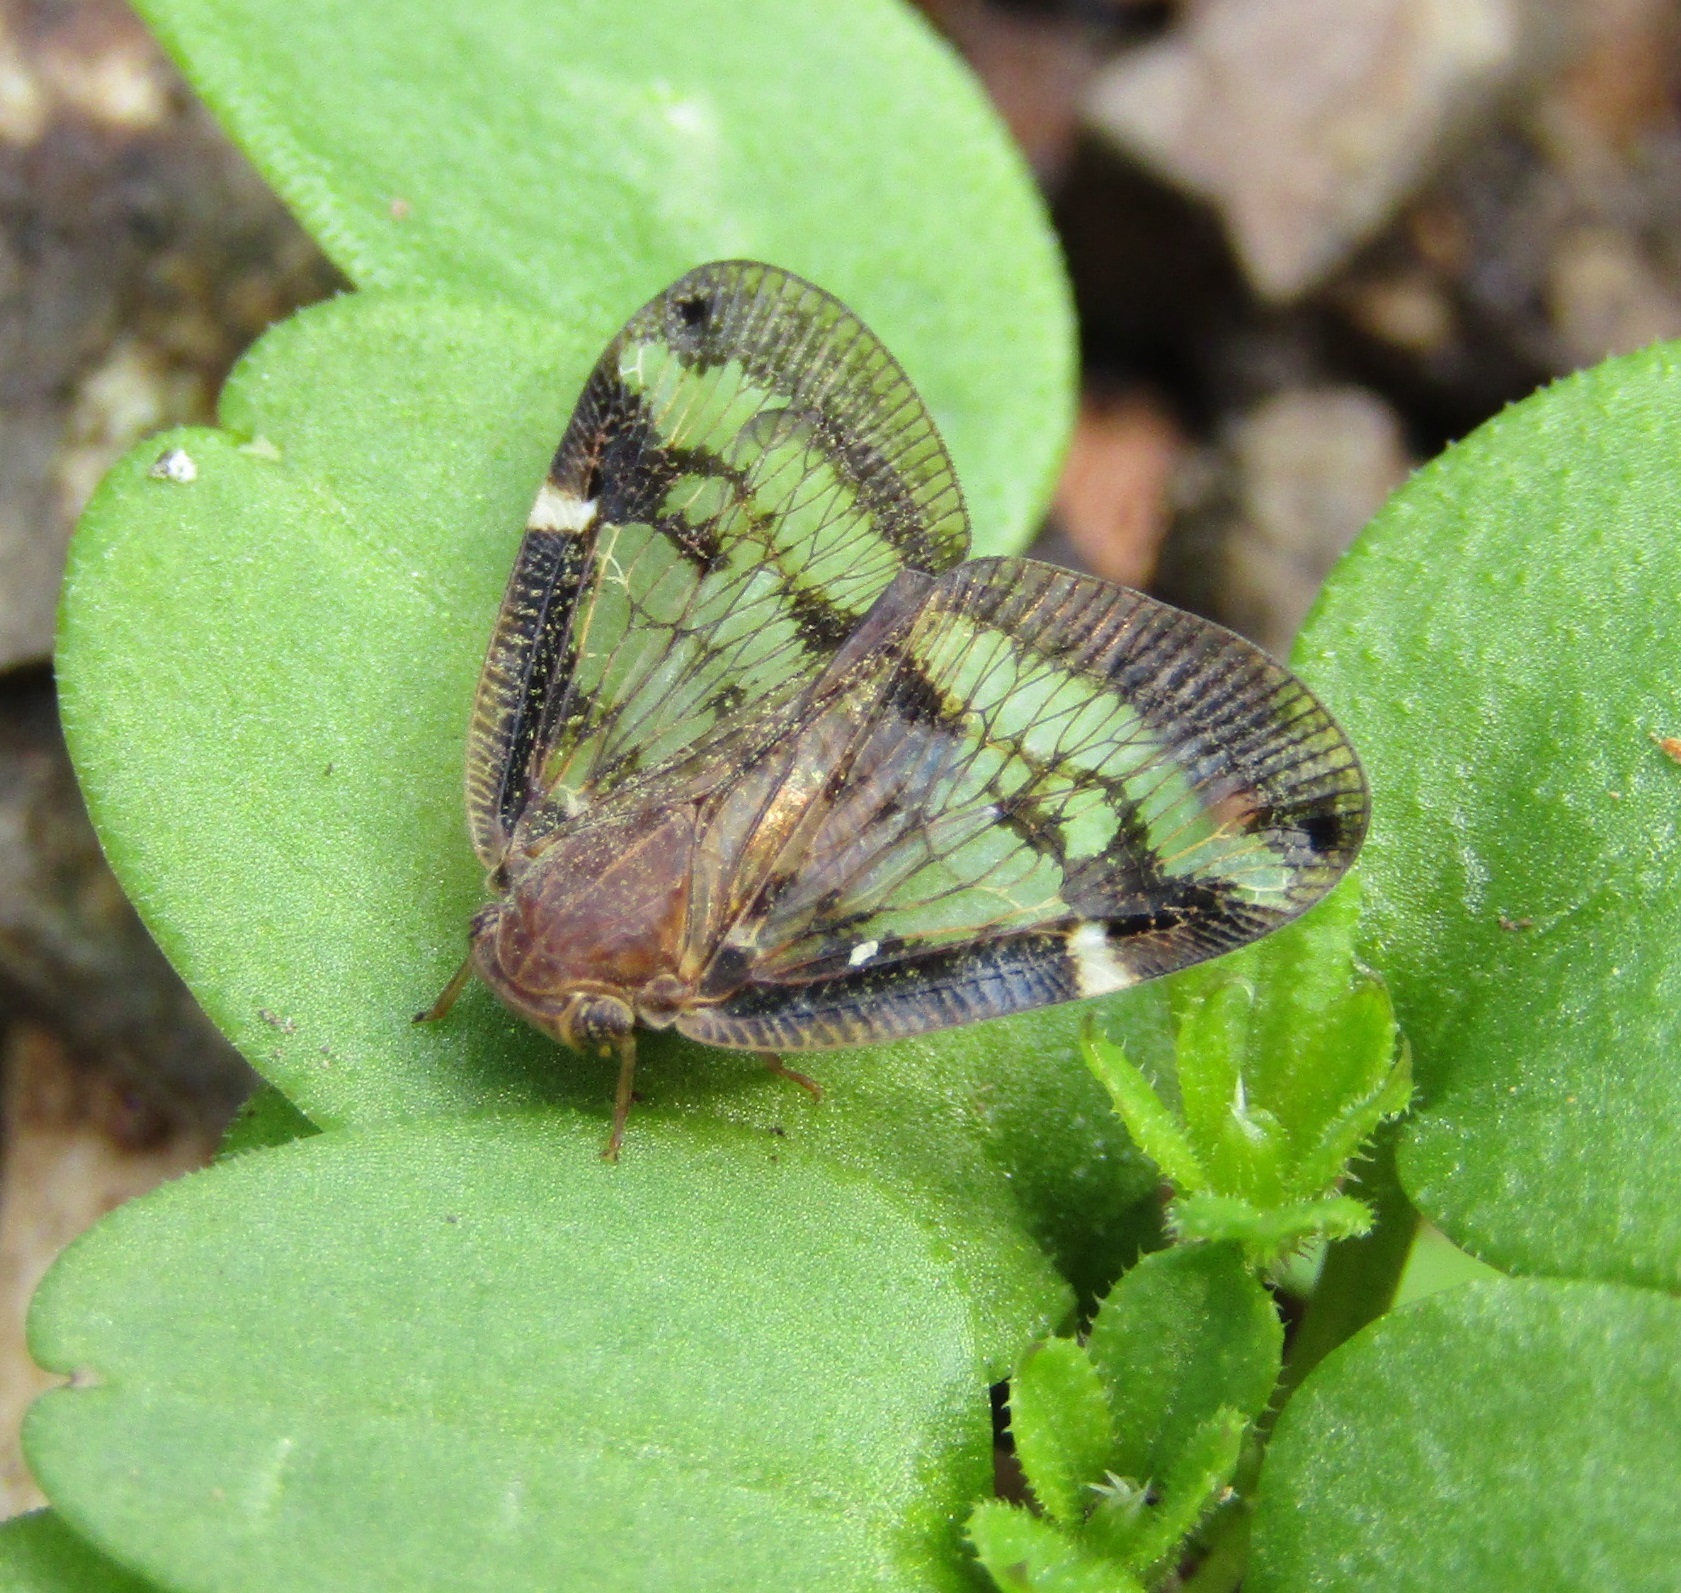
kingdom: Animalia
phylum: Arthropoda
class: Insecta
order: Hemiptera
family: Ricaniidae
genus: Scolypopa
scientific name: Scolypopa australis
